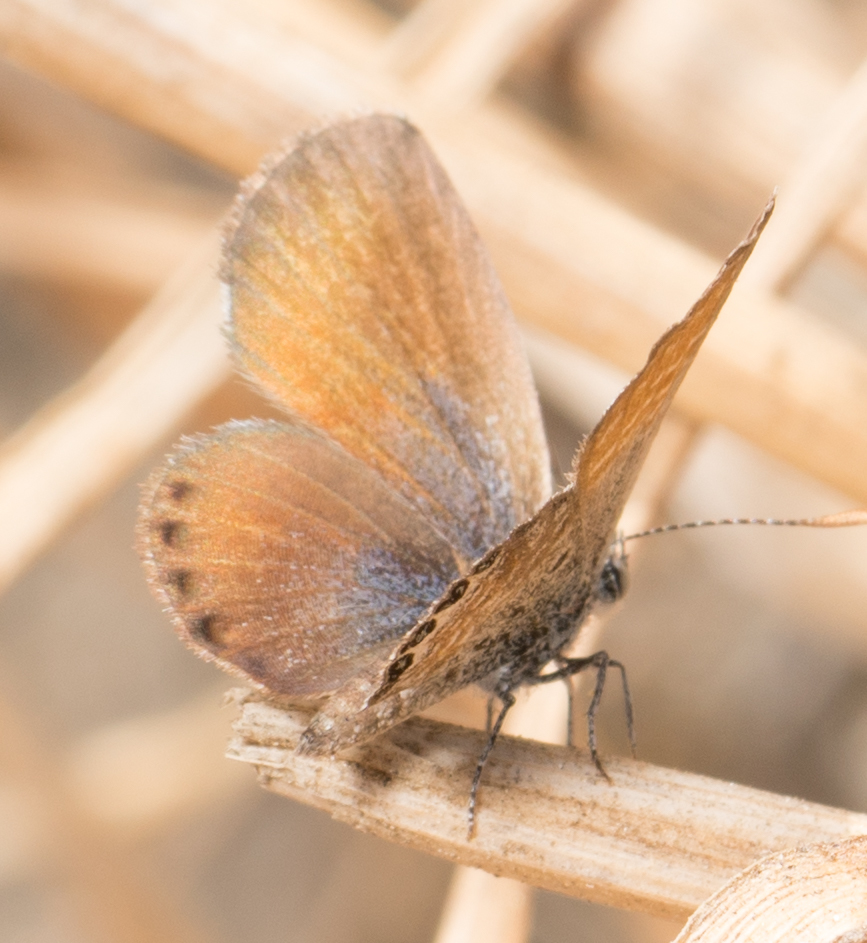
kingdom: Animalia
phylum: Arthropoda
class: Insecta
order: Lepidoptera
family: Lycaenidae
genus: Brephidium
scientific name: Brephidium exilis
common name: Pygmy blue
